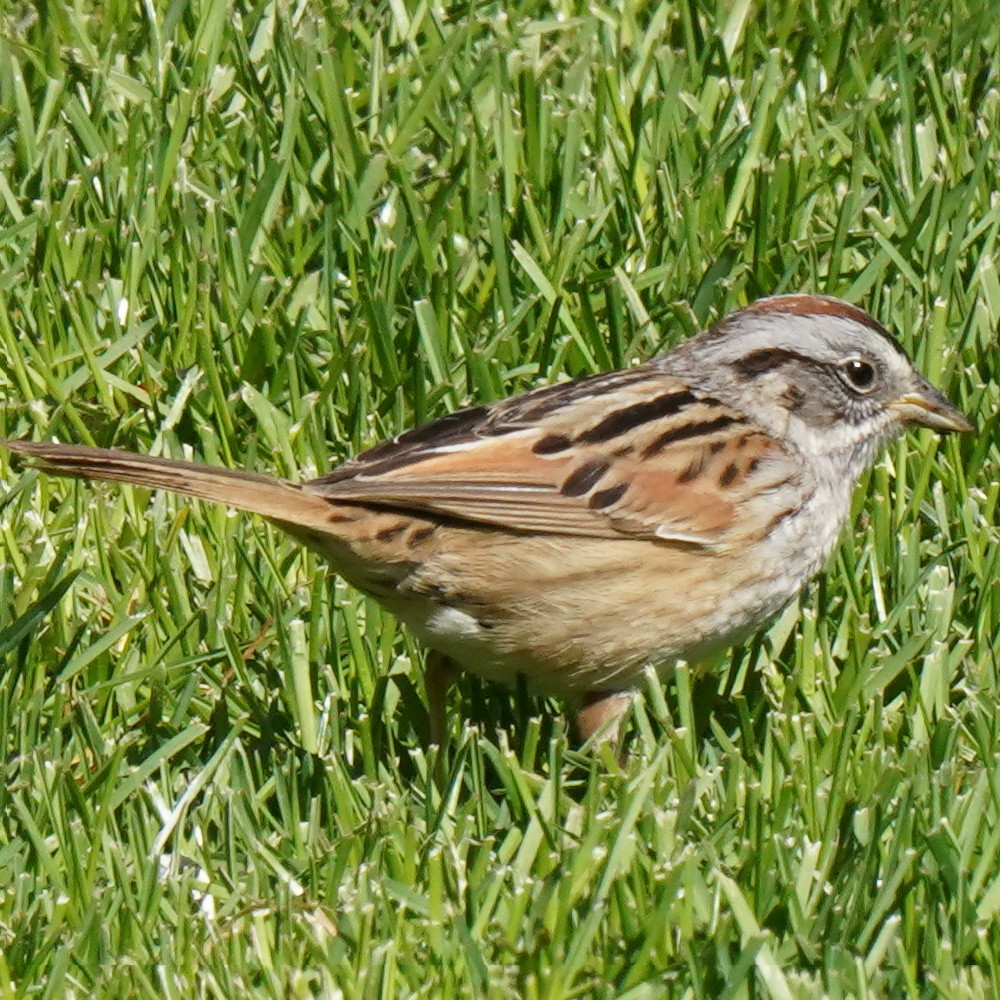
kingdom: Animalia
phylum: Chordata
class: Aves
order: Passeriformes
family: Passerellidae
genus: Melospiza
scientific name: Melospiza georgiana
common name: Swamp sparrow
